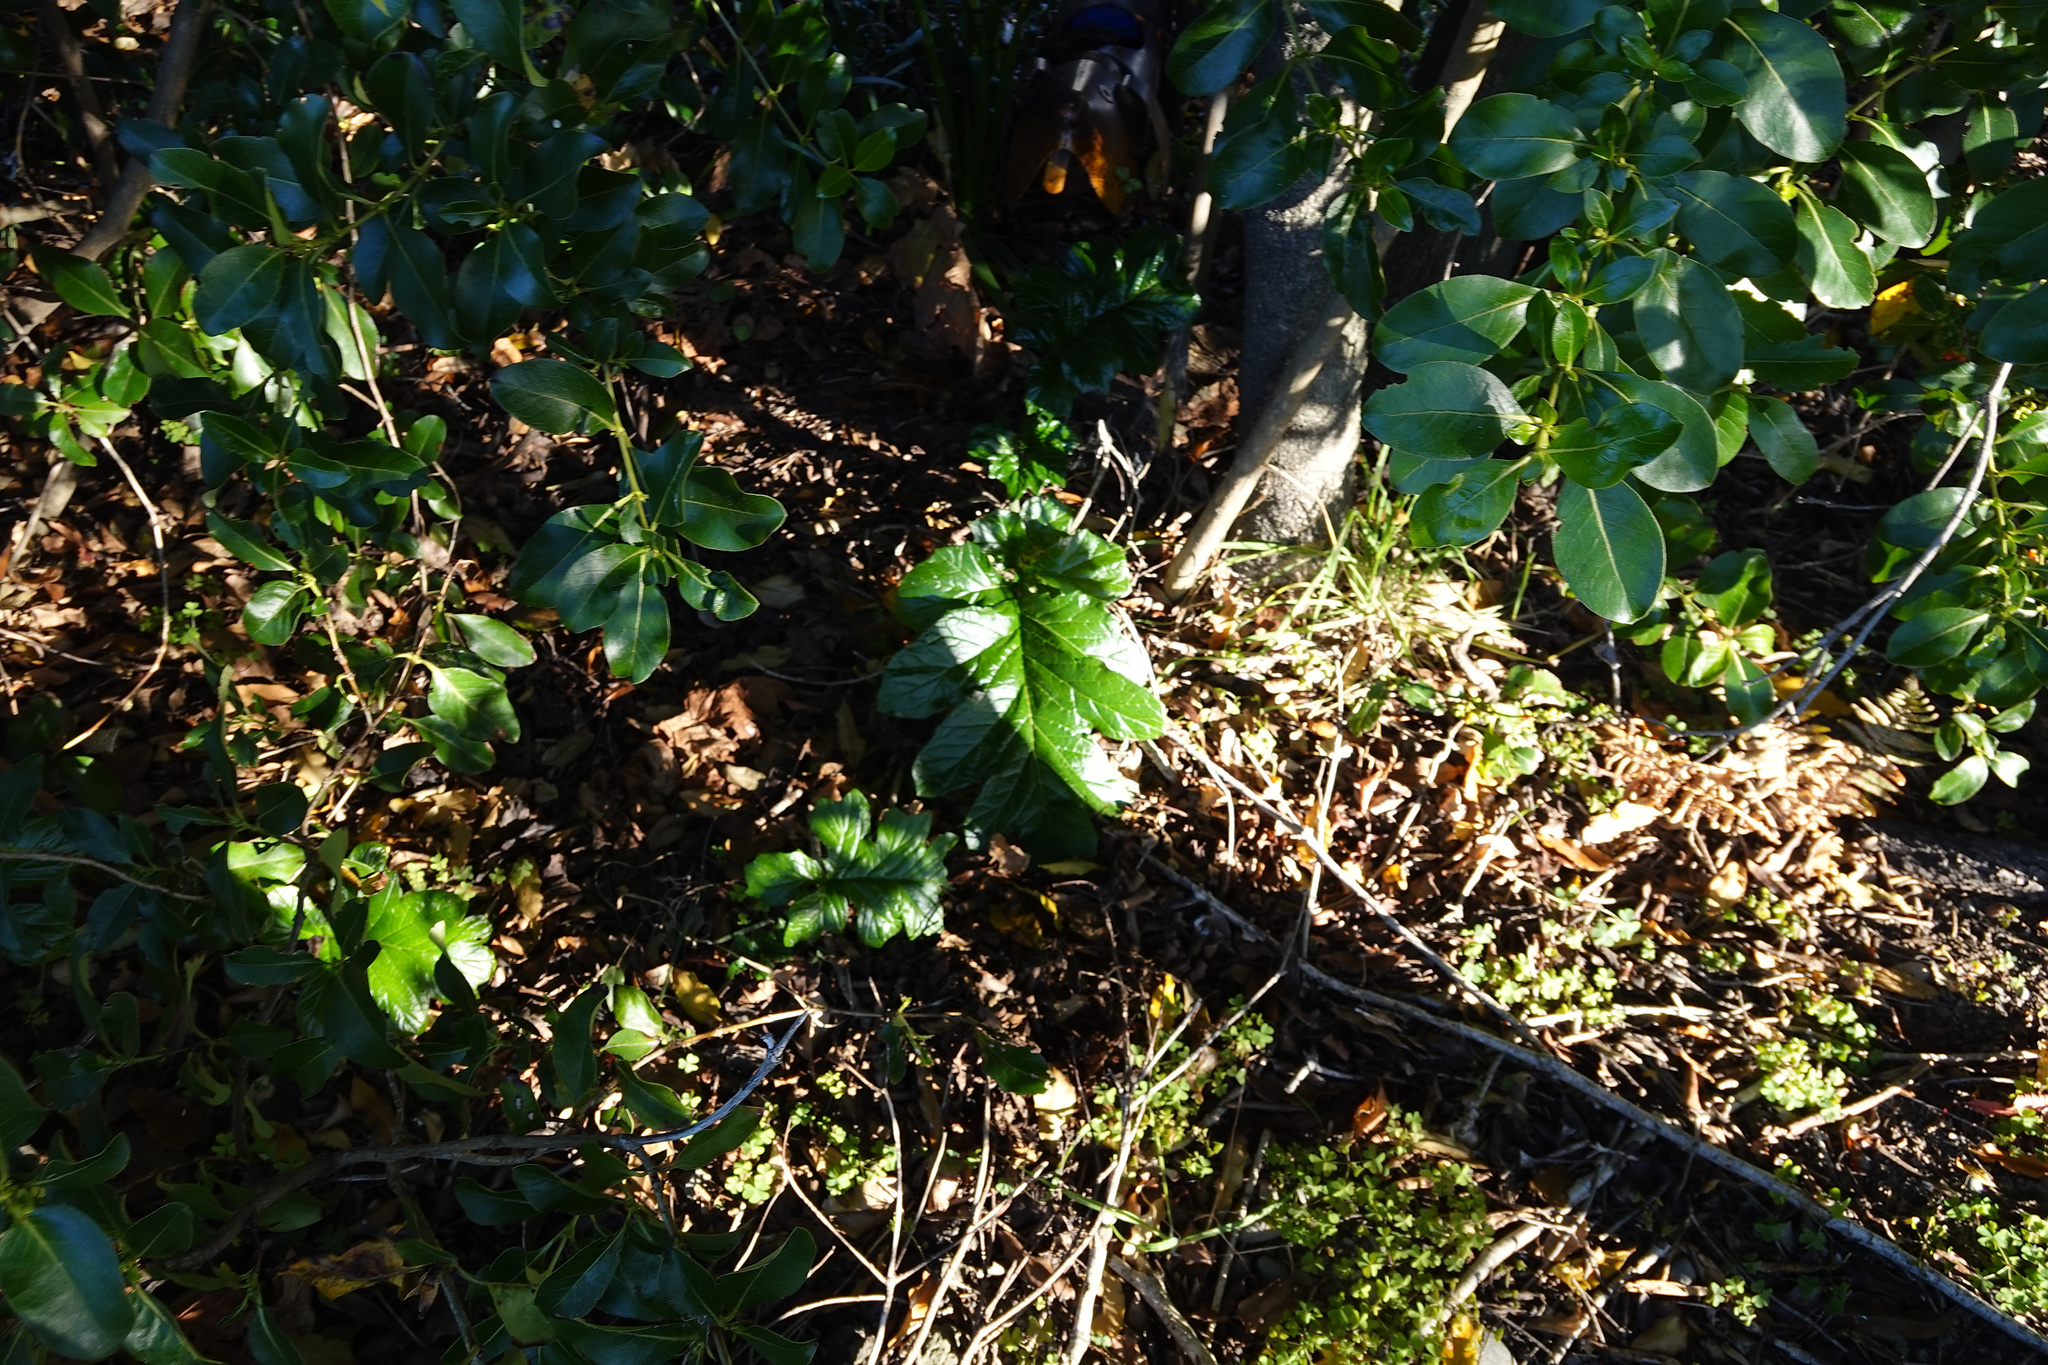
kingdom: Plantae
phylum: Tracheophyta
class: Magnoliopsida
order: Lamiales
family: Acanthaceae
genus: Acanthus
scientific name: Acanthus mollis
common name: Bear's-breech
